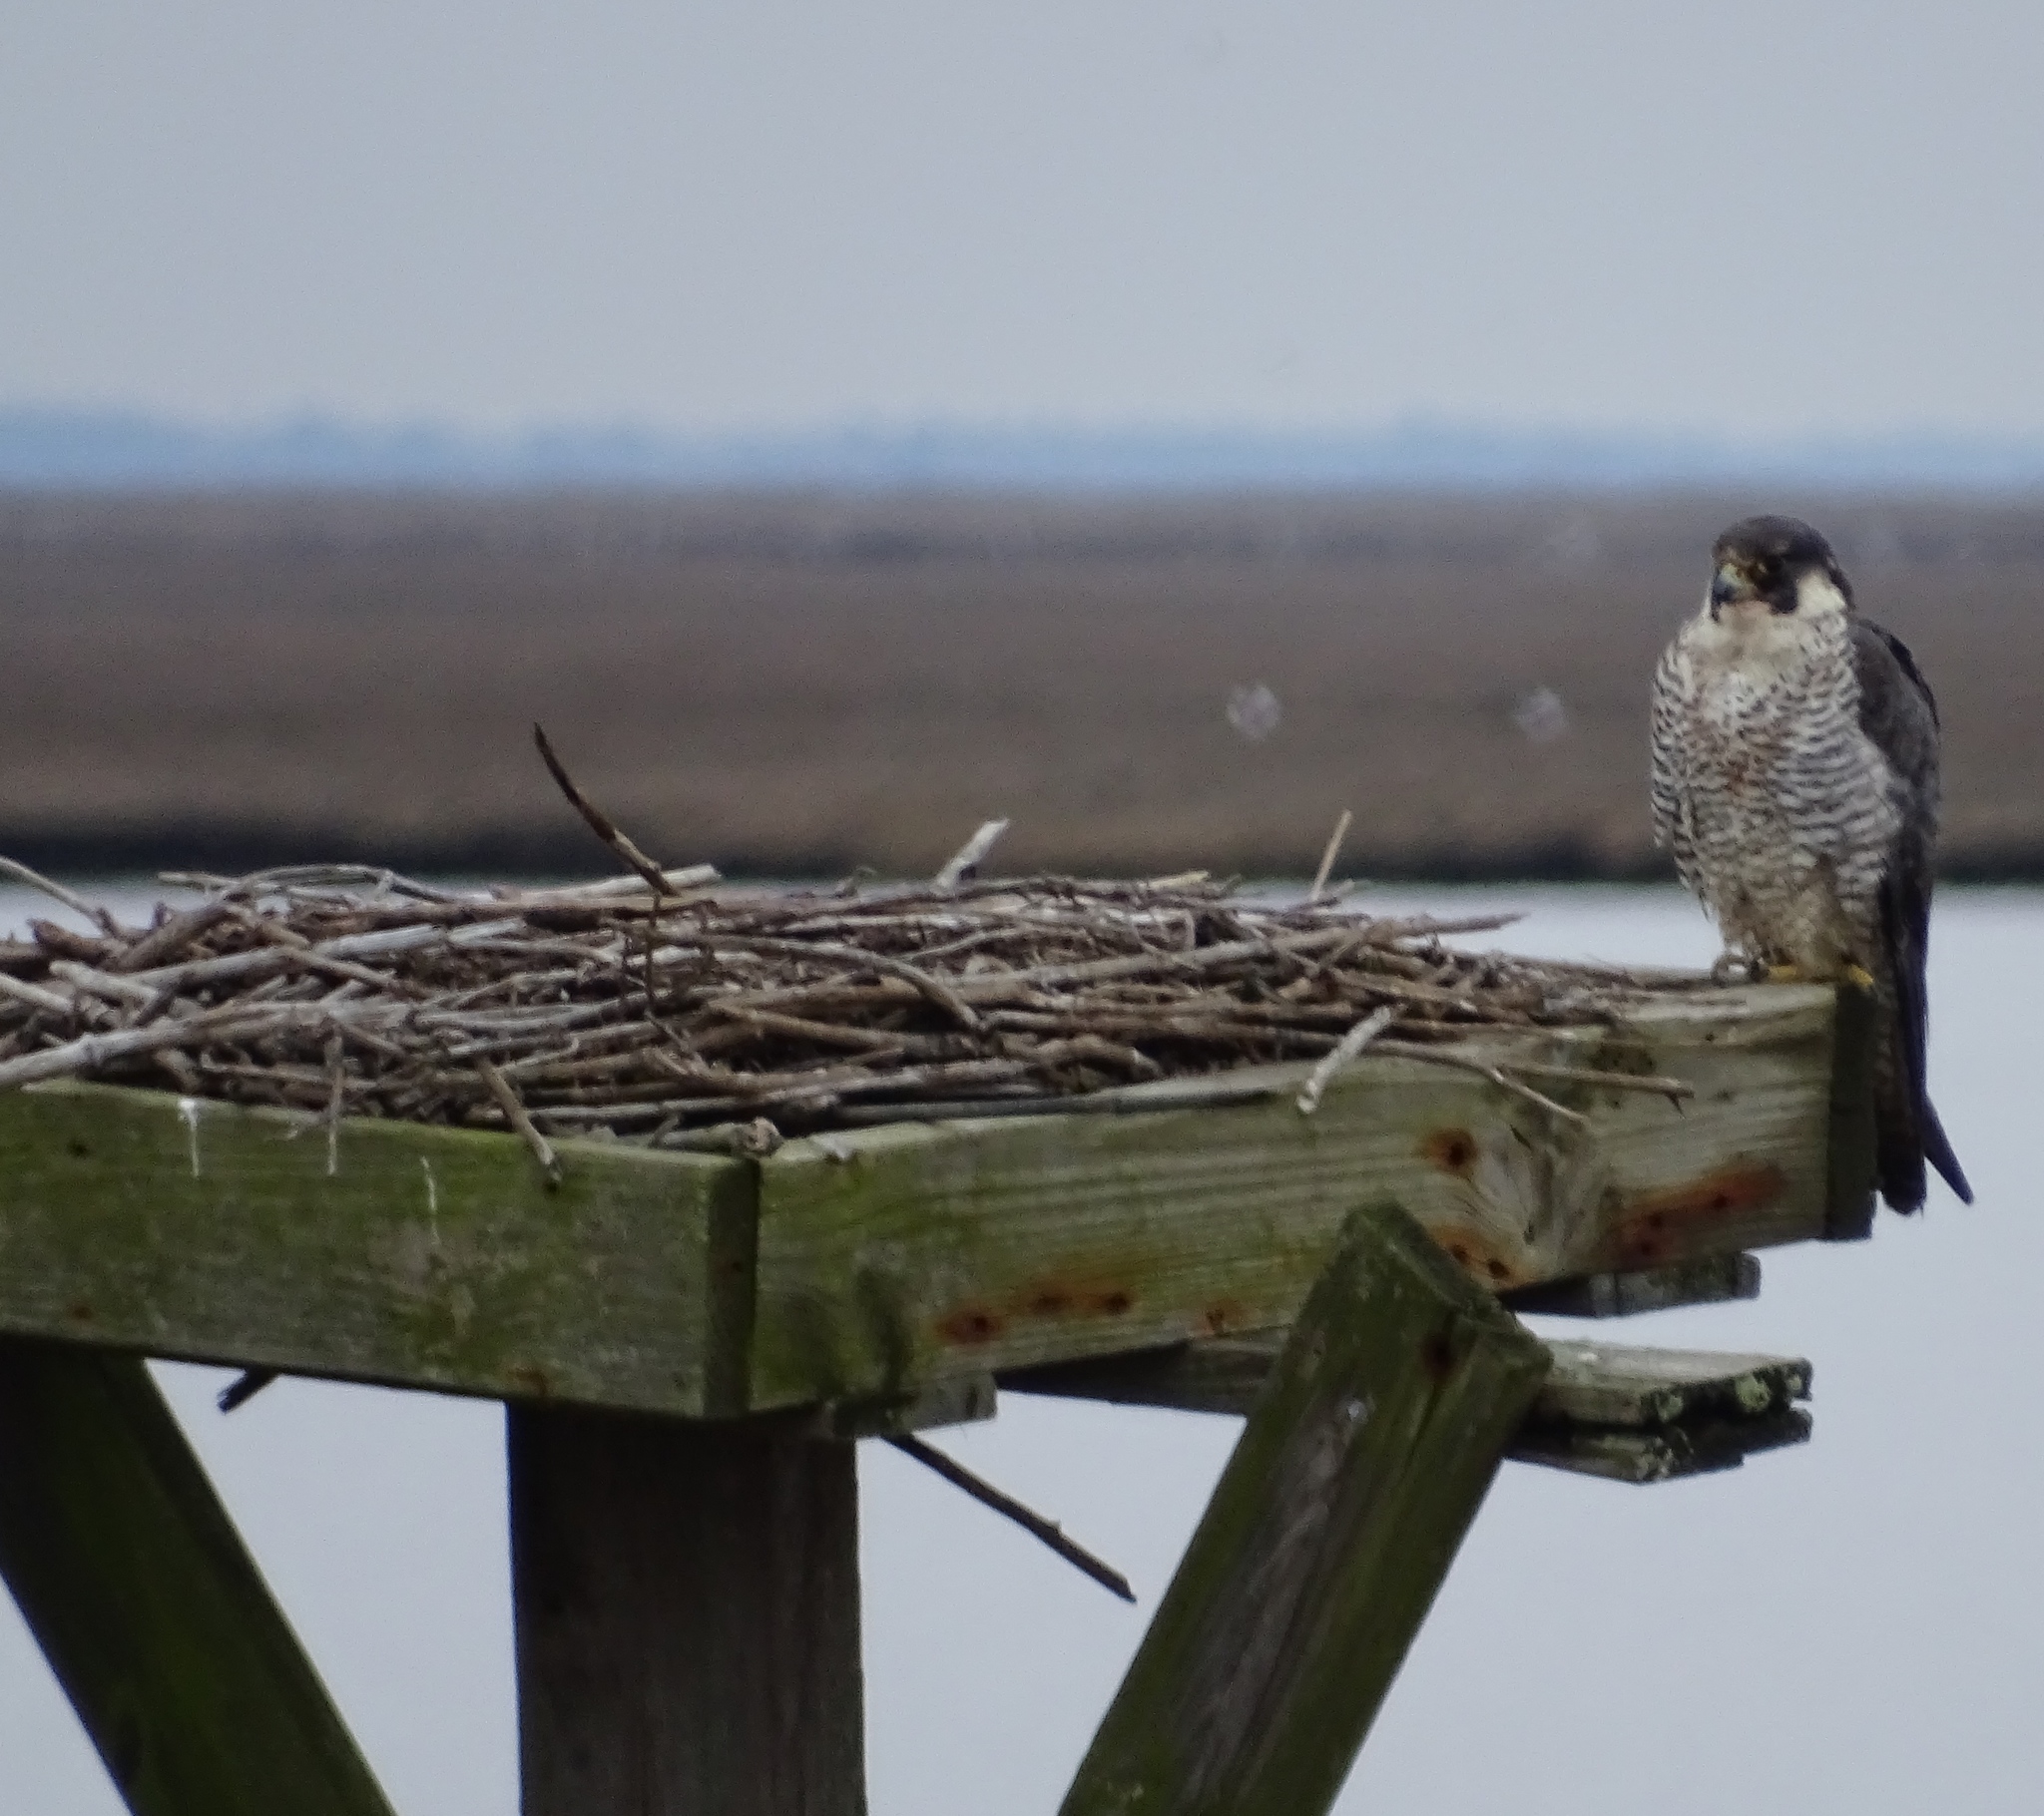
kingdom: Animalia
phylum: Chordata
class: Aves
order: Falconiformes
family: Falconidae
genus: Falco
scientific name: Falco peregrinus
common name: Peregrine falcon
